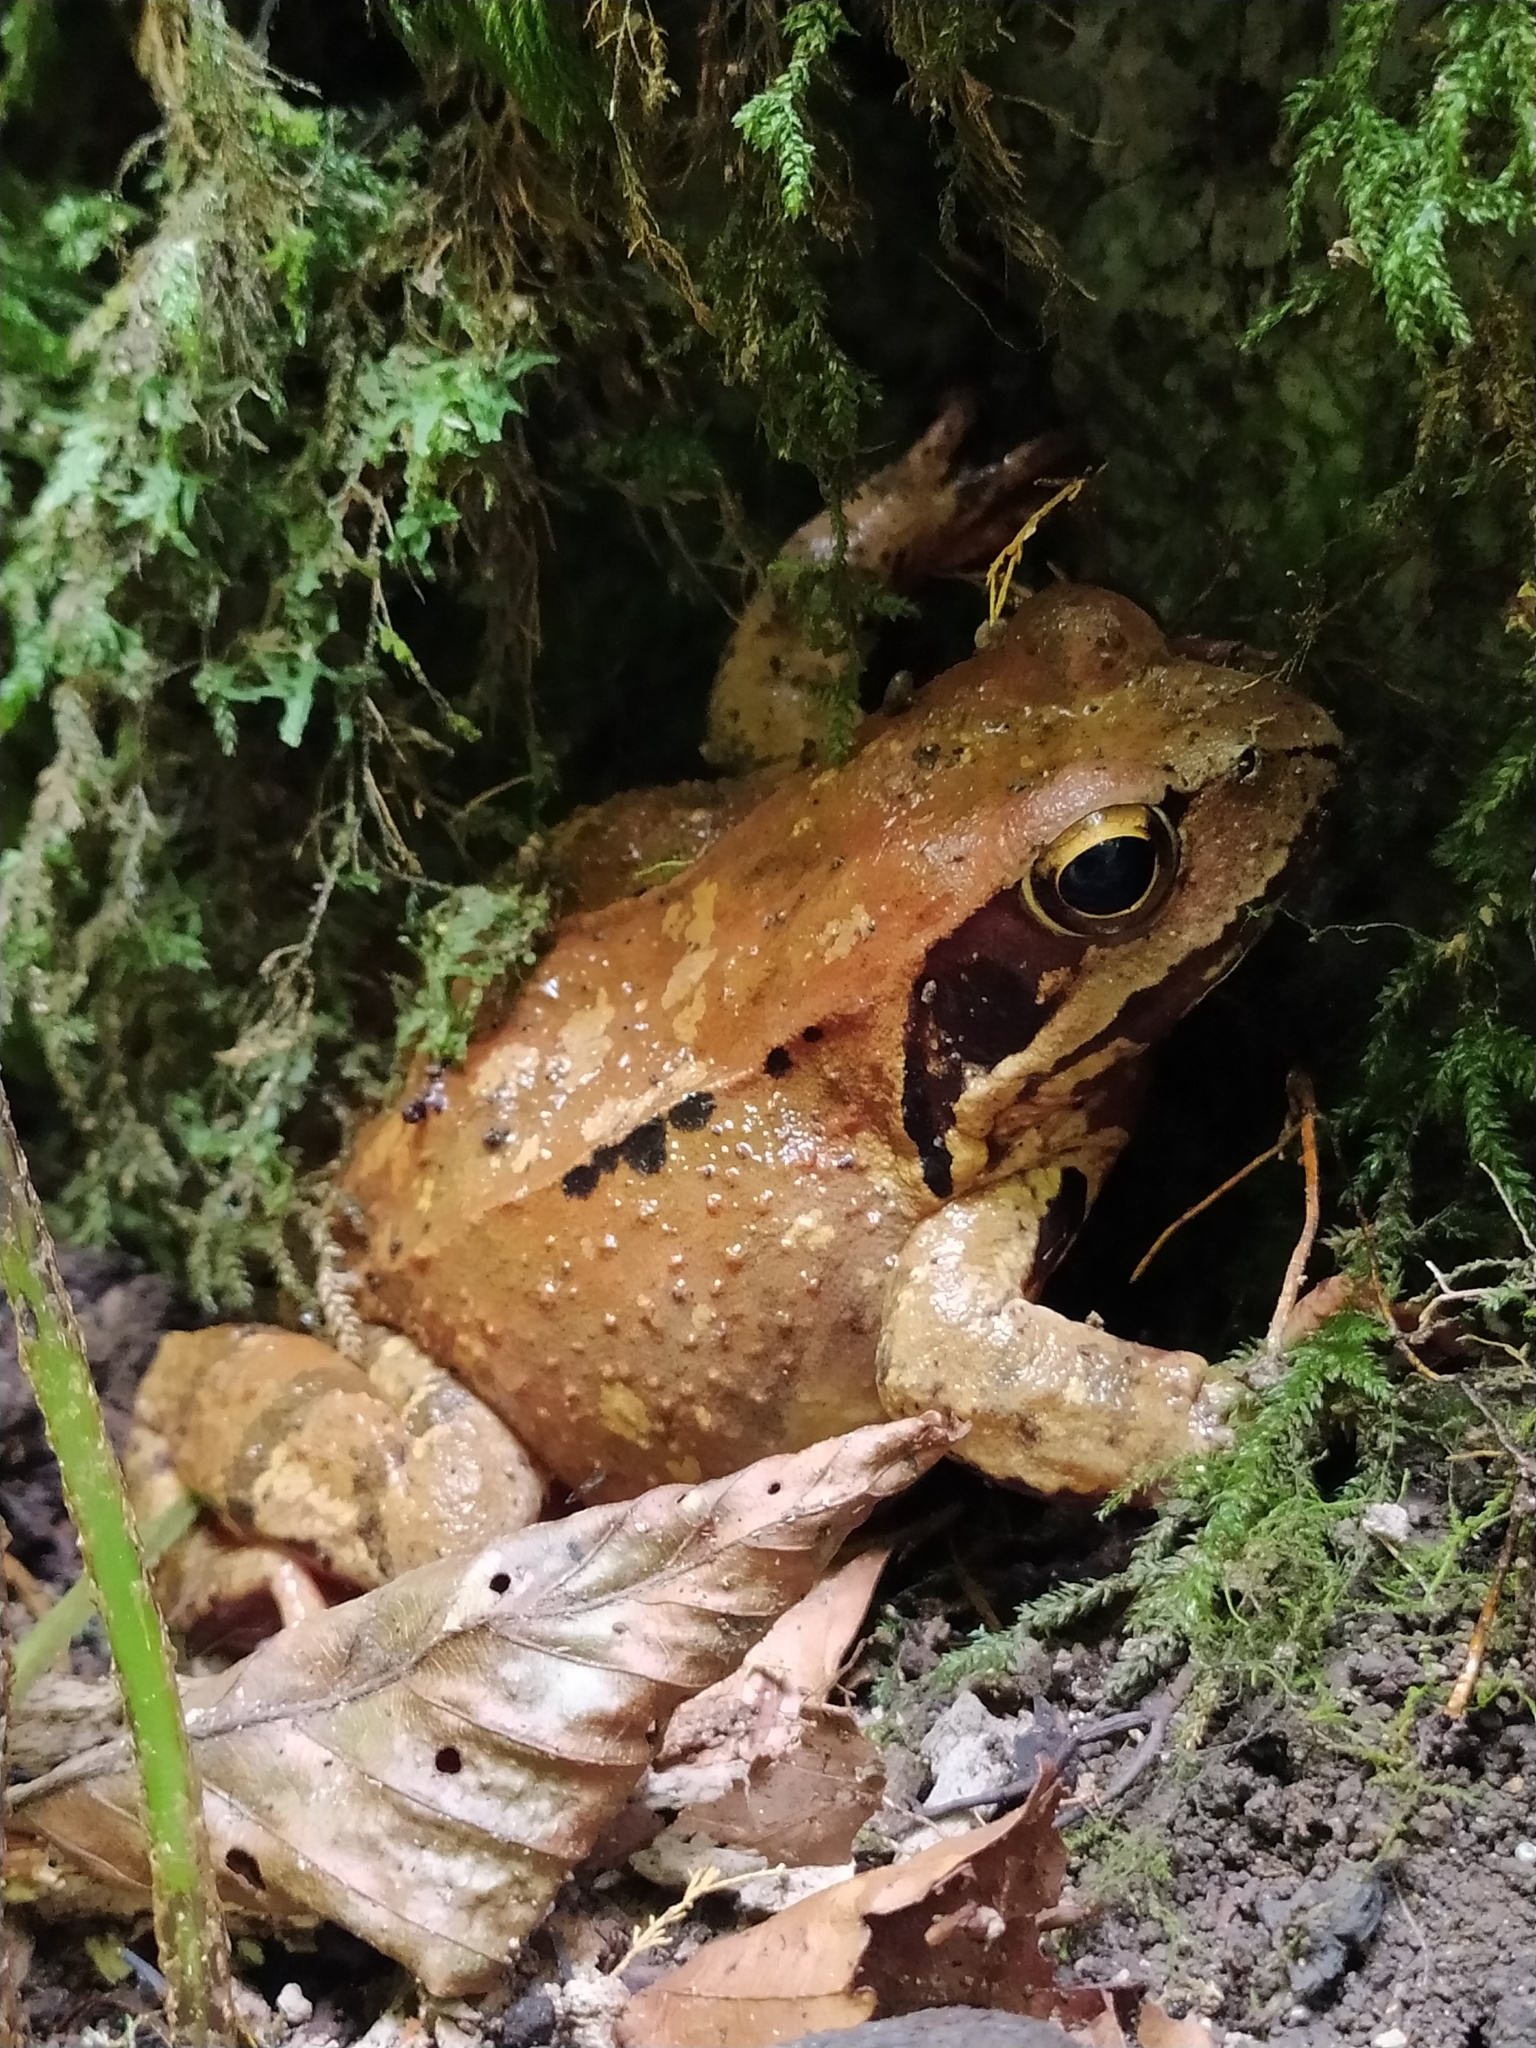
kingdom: Animalia
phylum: Chordata
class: Amphibia
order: Anura
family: Ranidae
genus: Rana
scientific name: Rana temporaria
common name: Common frog
